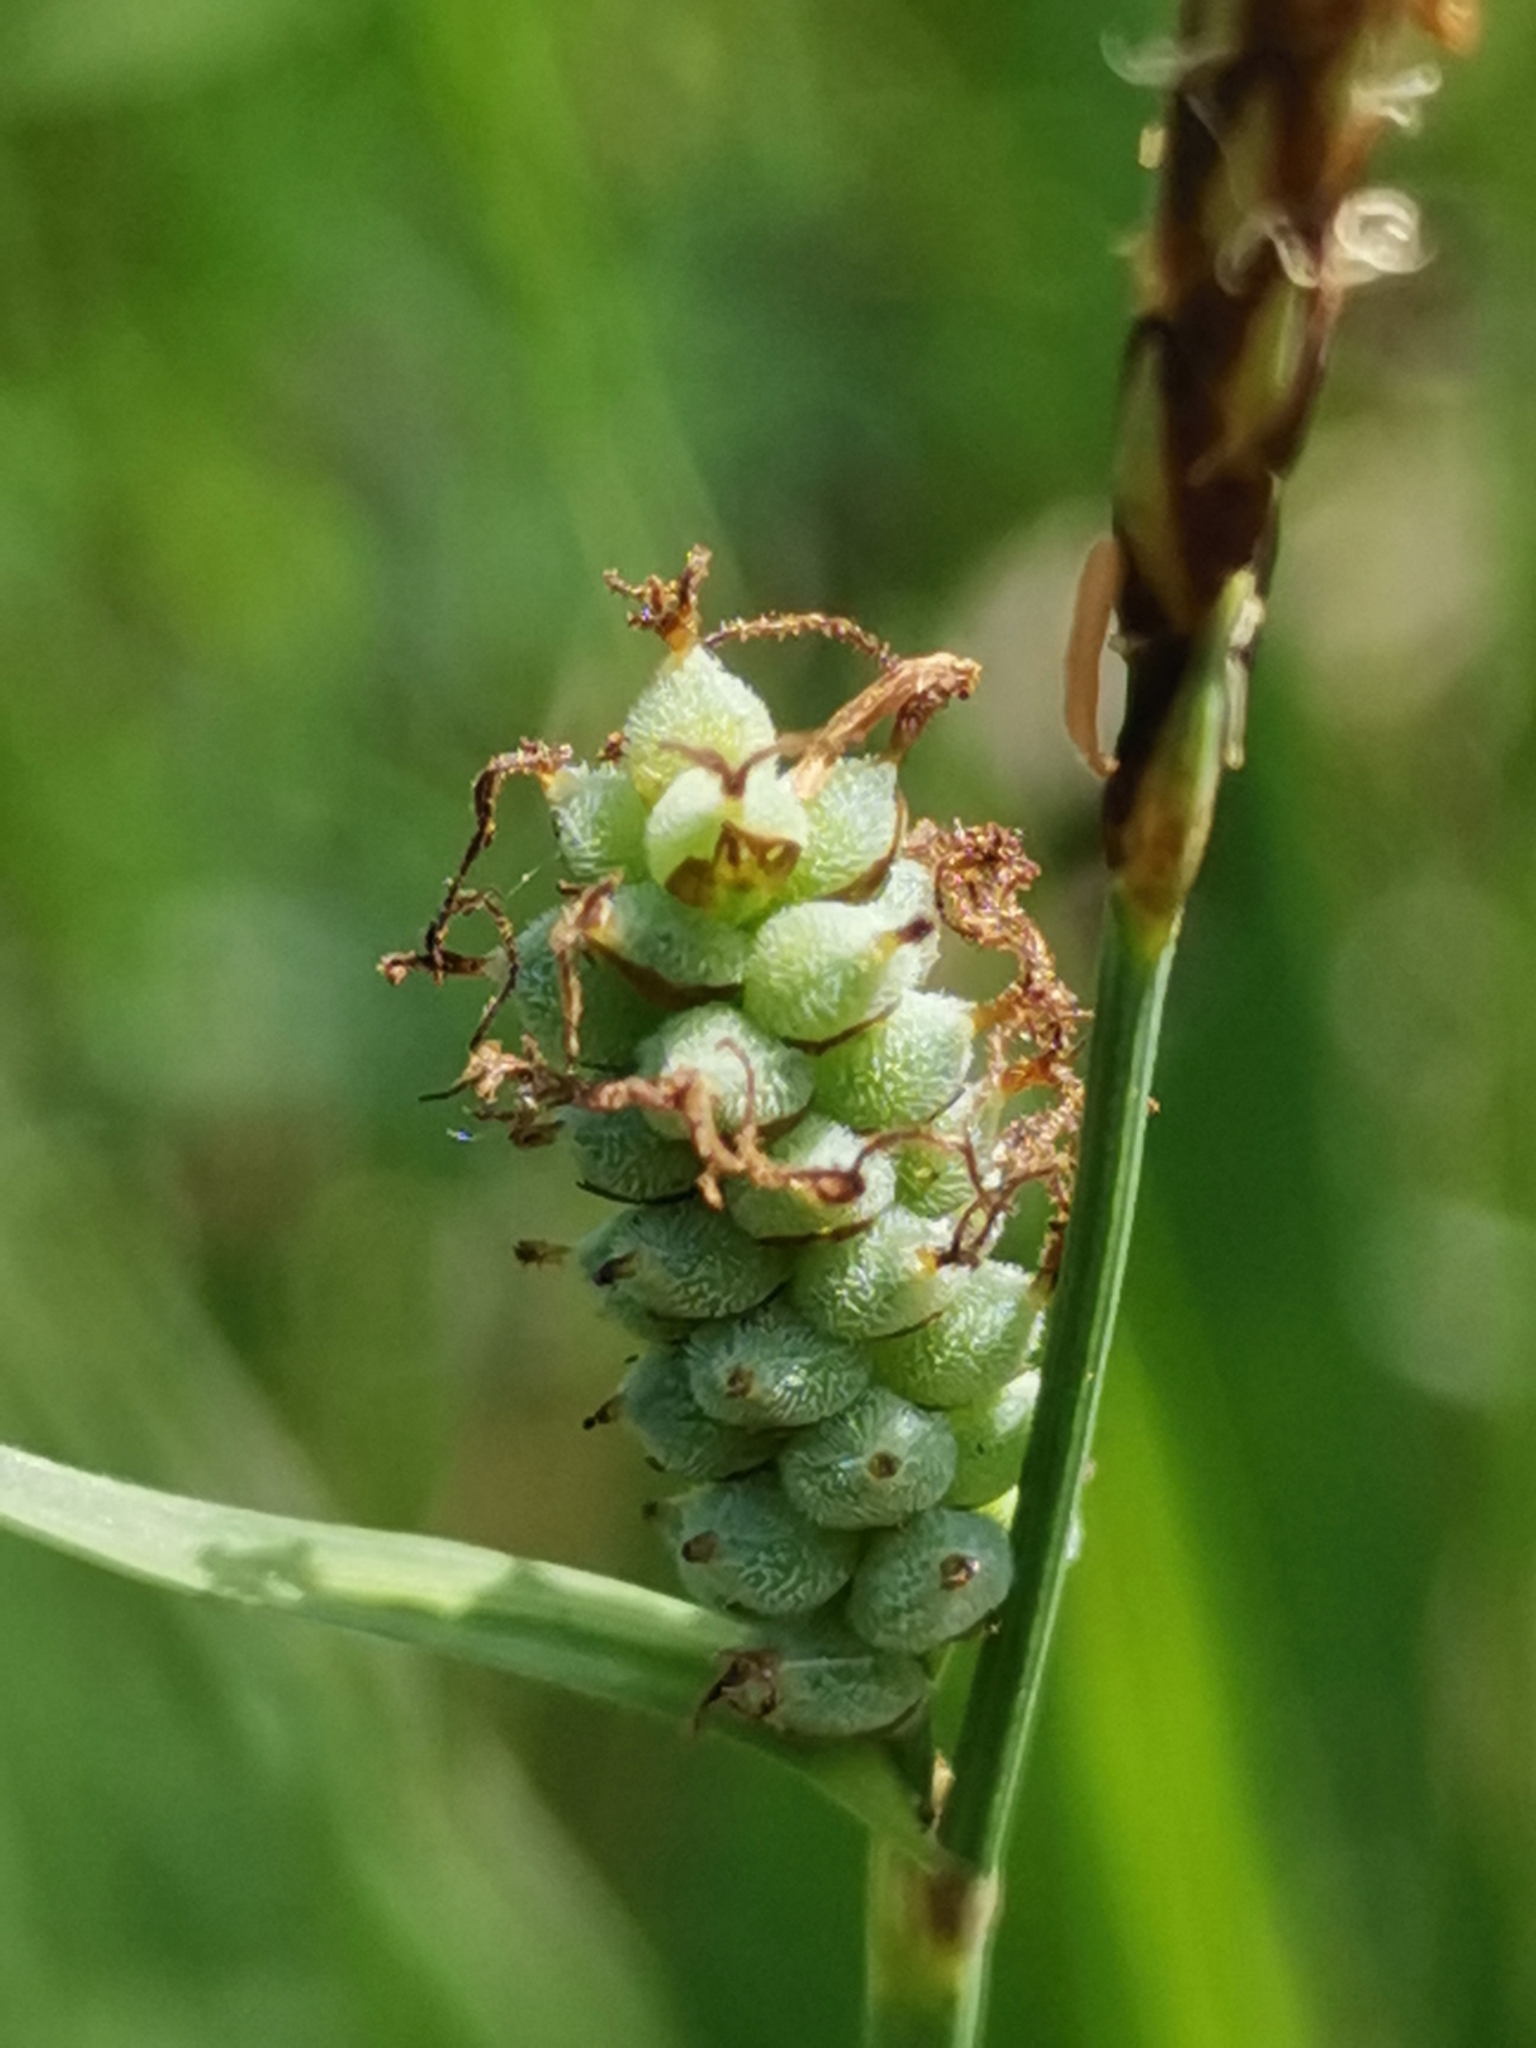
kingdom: Plantae
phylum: Tracheophyta
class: Liliopsida
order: Poales
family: Cyperaceae
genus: Carex
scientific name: Carex tomentosa
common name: Downy-fruited sedge
